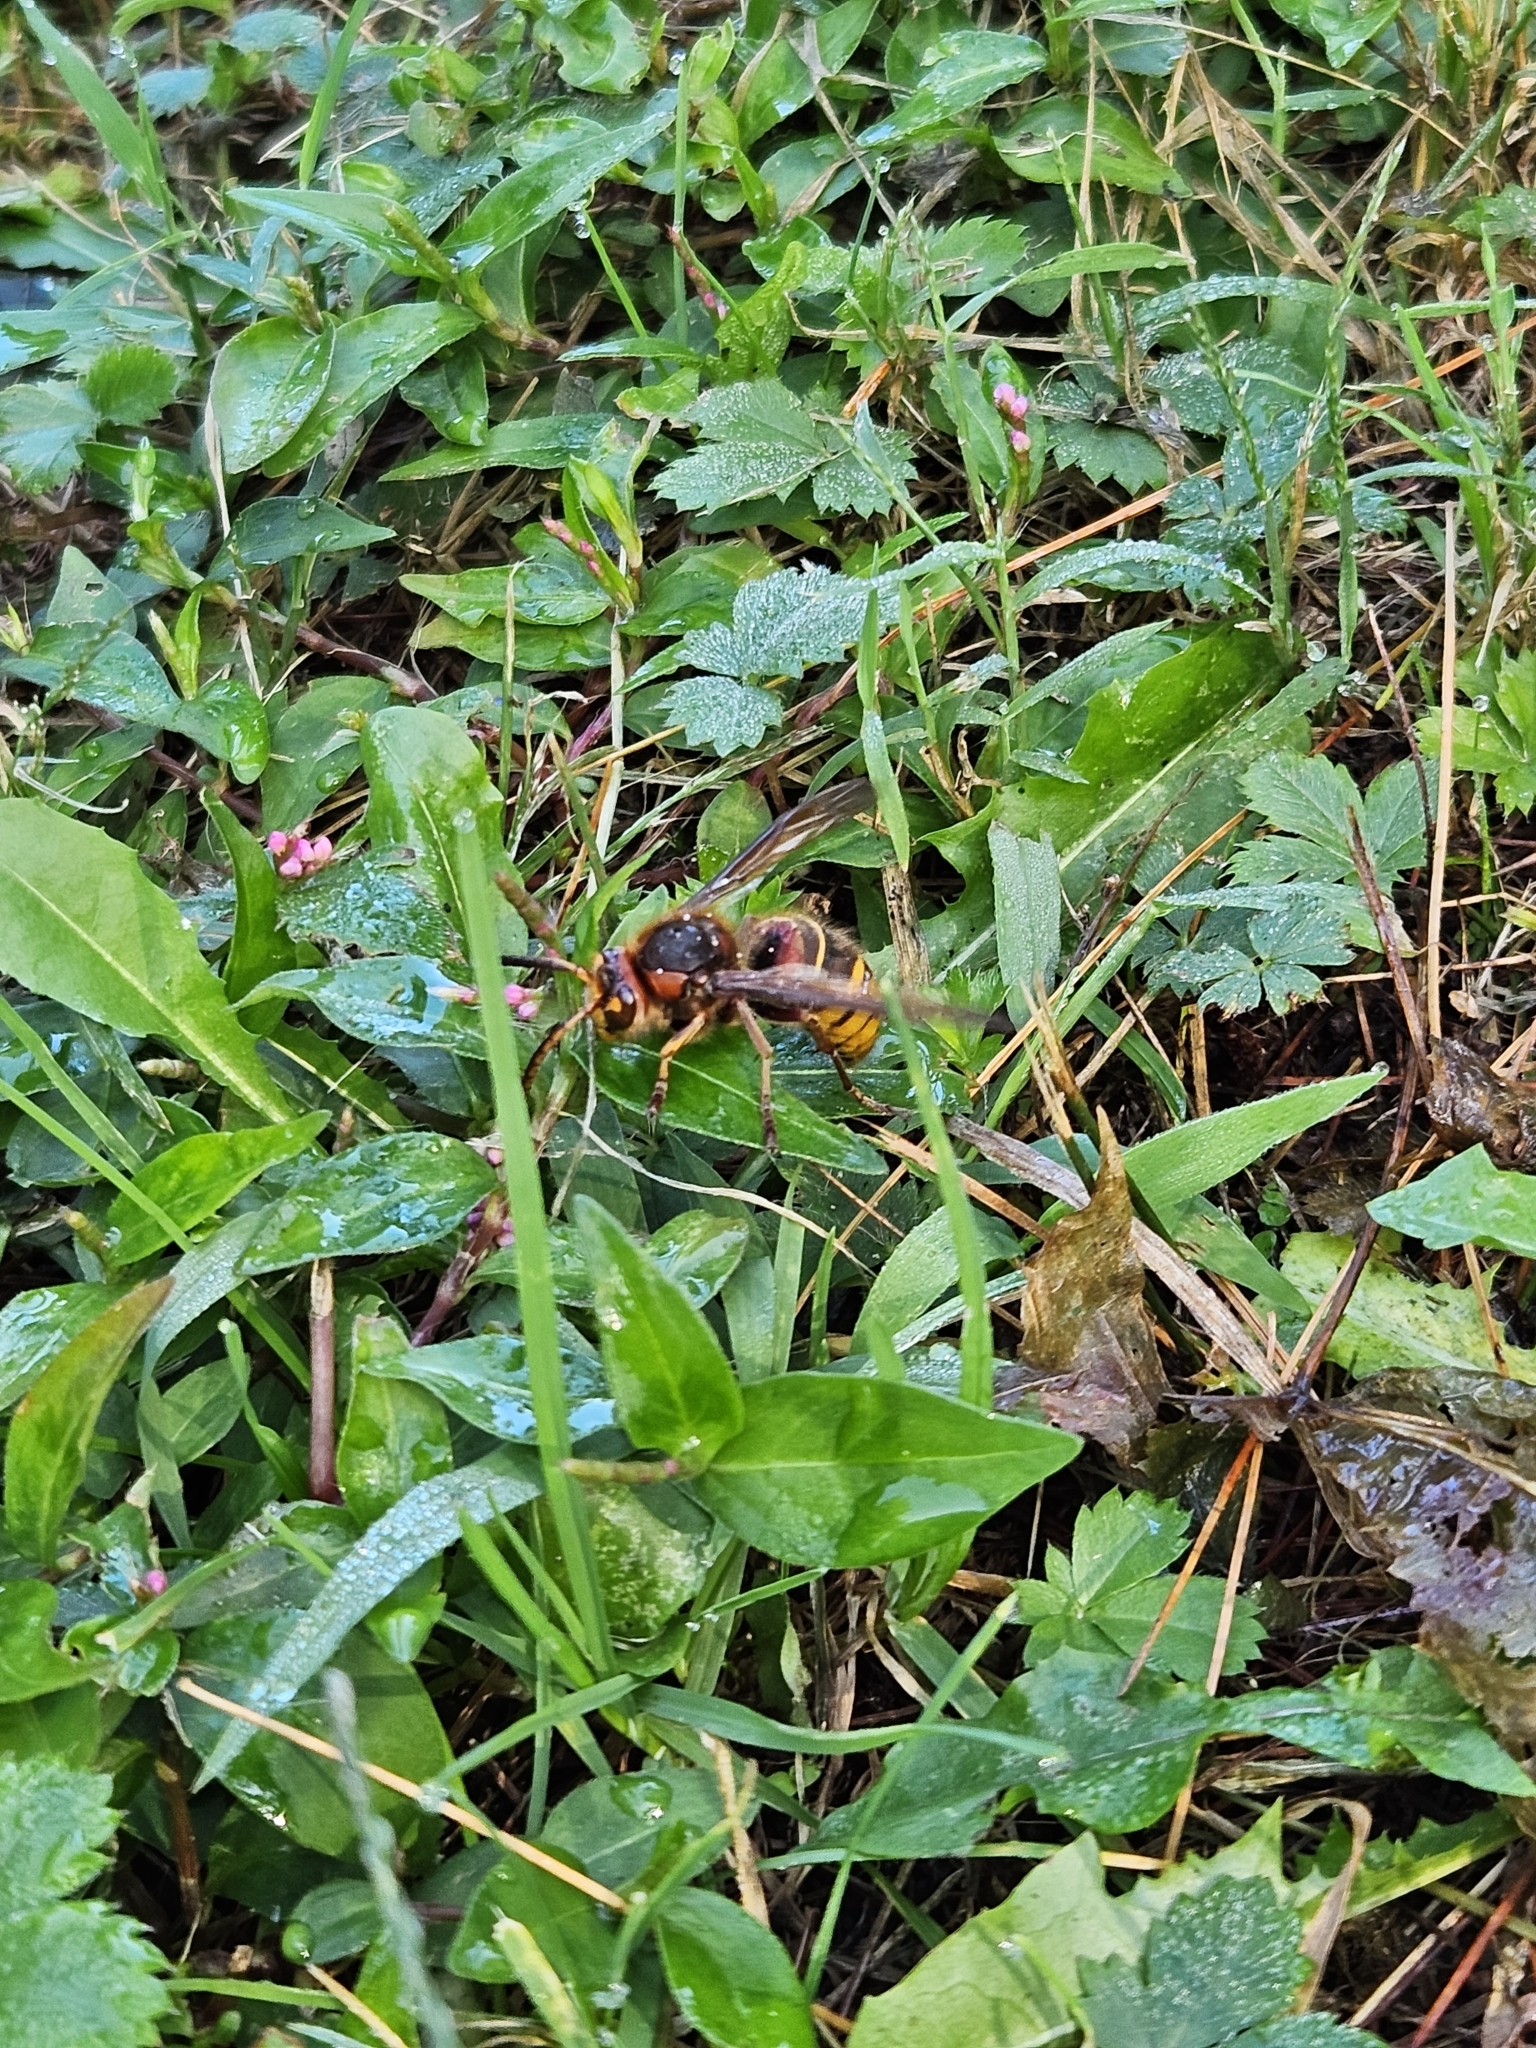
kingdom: Animalia
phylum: Arthropoda
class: Insecta
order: Hymenoptera
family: Vespidae
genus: Vespa
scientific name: Vespa crabro
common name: Hornet
